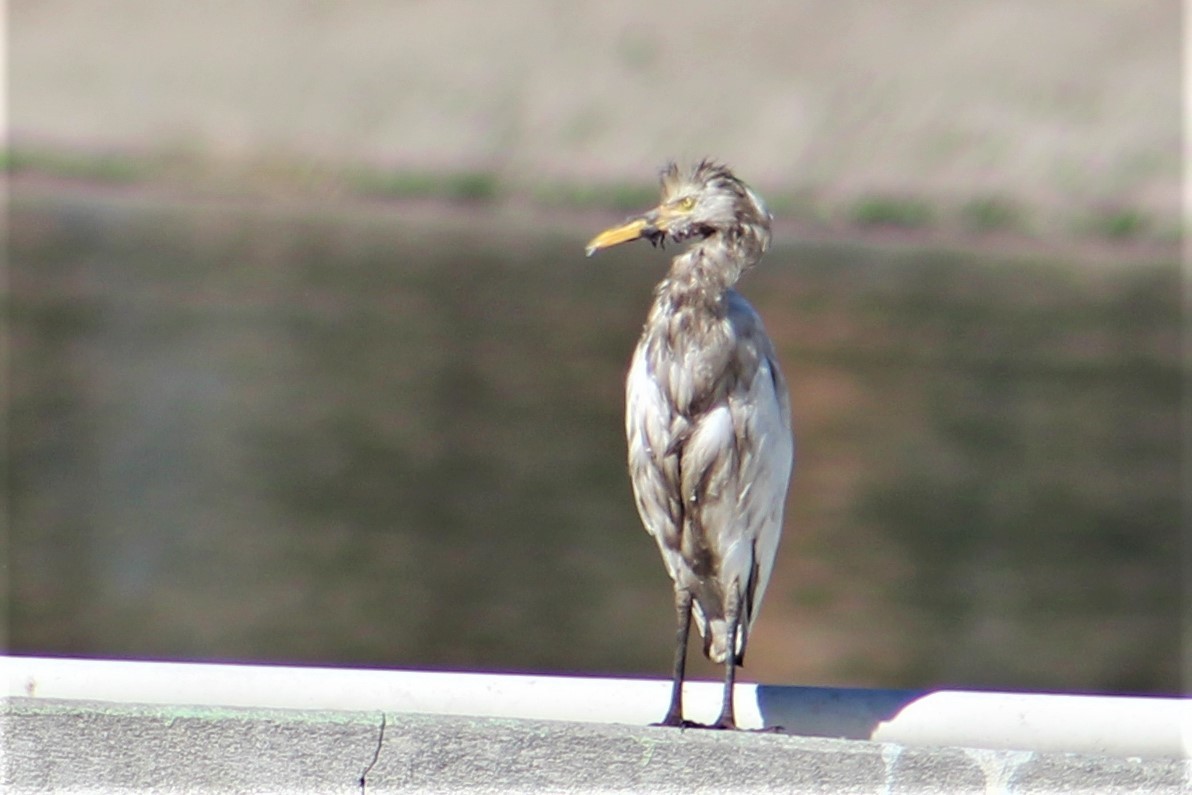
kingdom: Animalia
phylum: Chordata
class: Aves
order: Pelecaniformes
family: Ardeidae
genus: Bubulcus
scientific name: Bubulcus ibis
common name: Cattle egret
